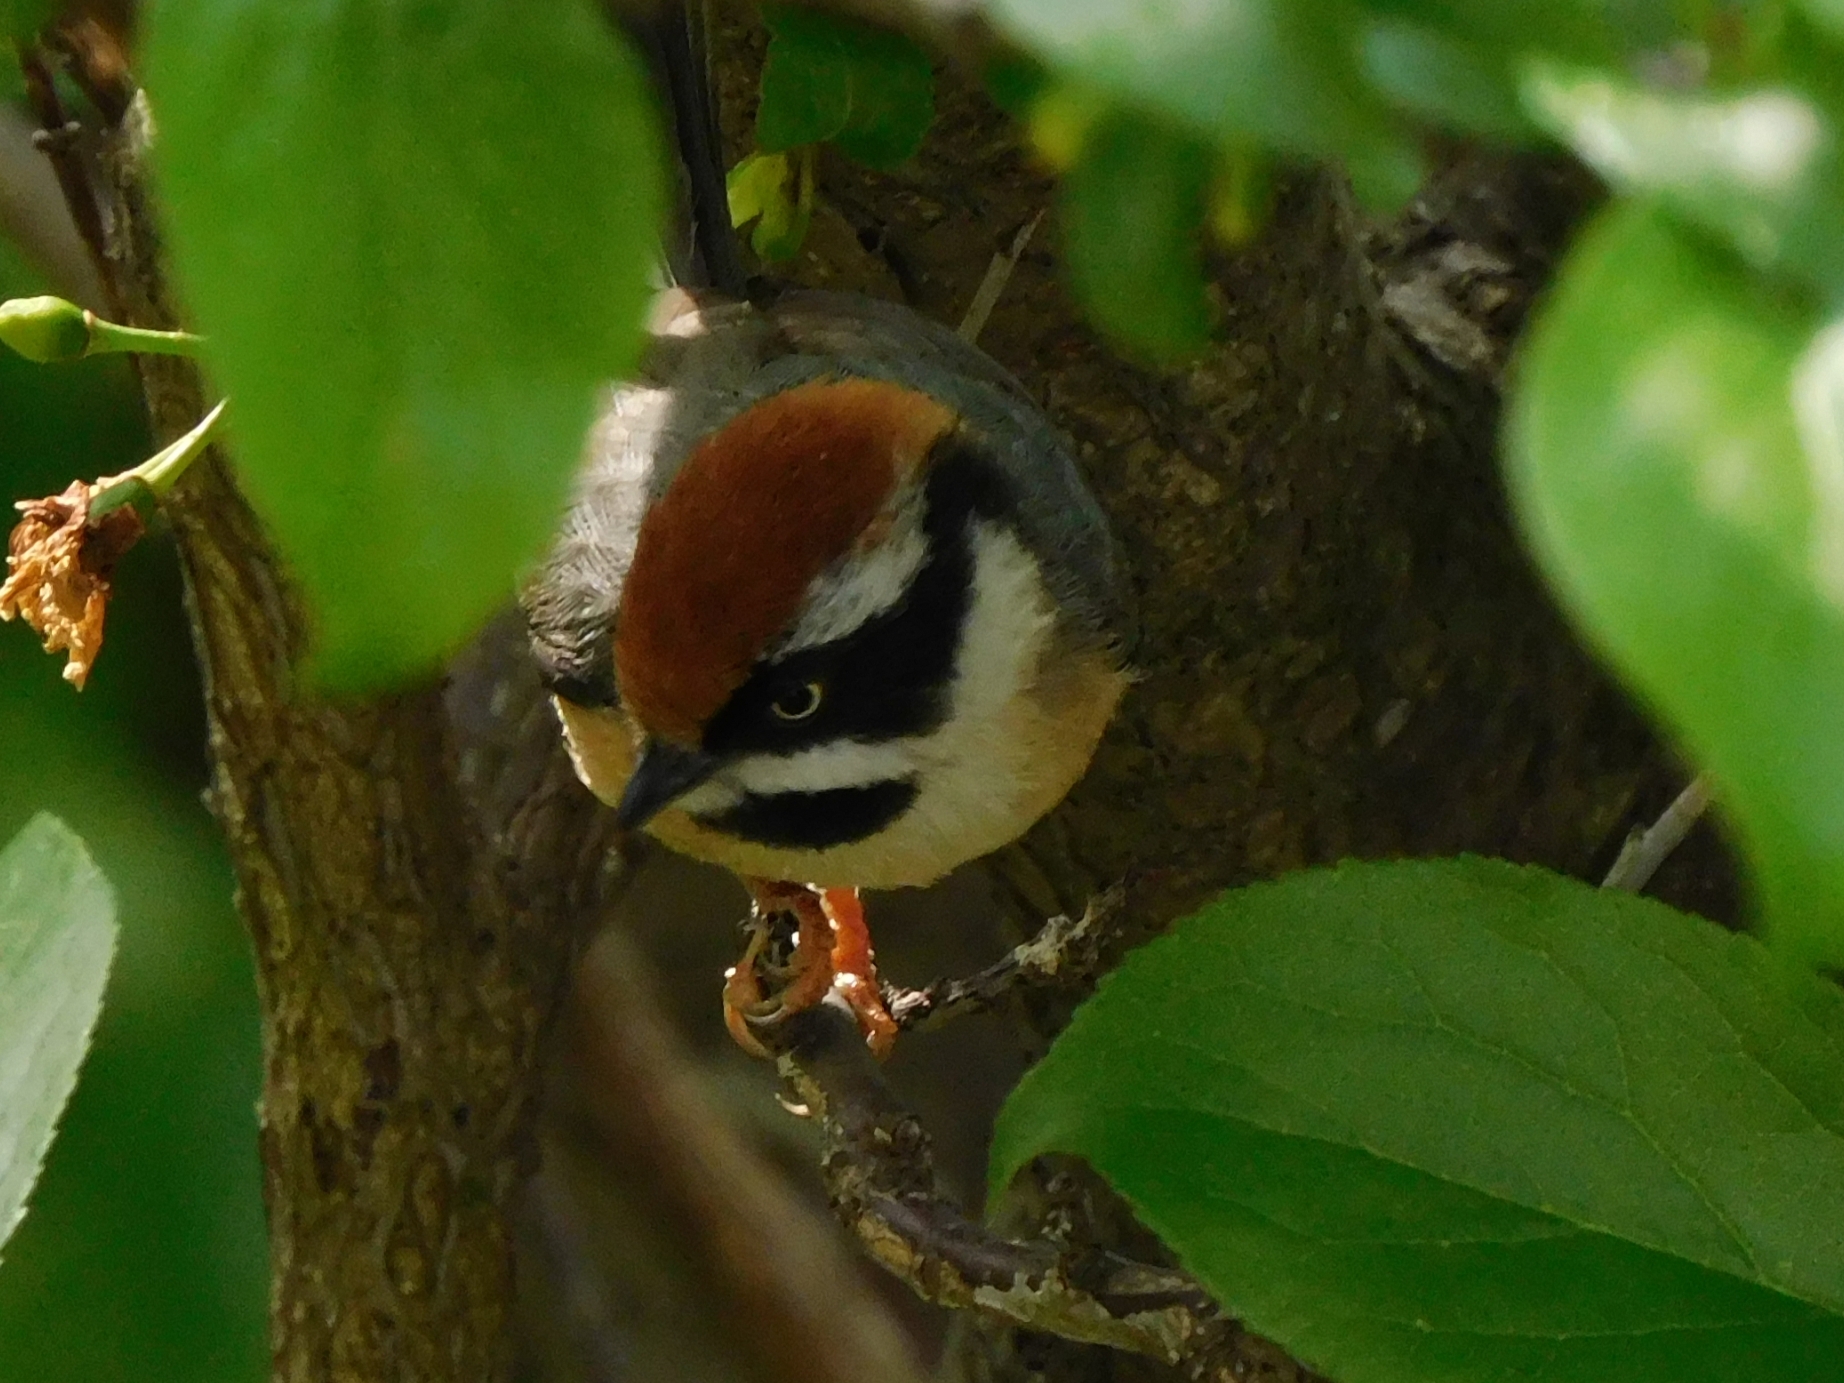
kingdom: Animalia
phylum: Chordata
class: Aves
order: Passeriformes
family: Aegithalidae
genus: Aegithalos
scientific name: Aegithalos concinnus
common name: Black-throated bushtit
